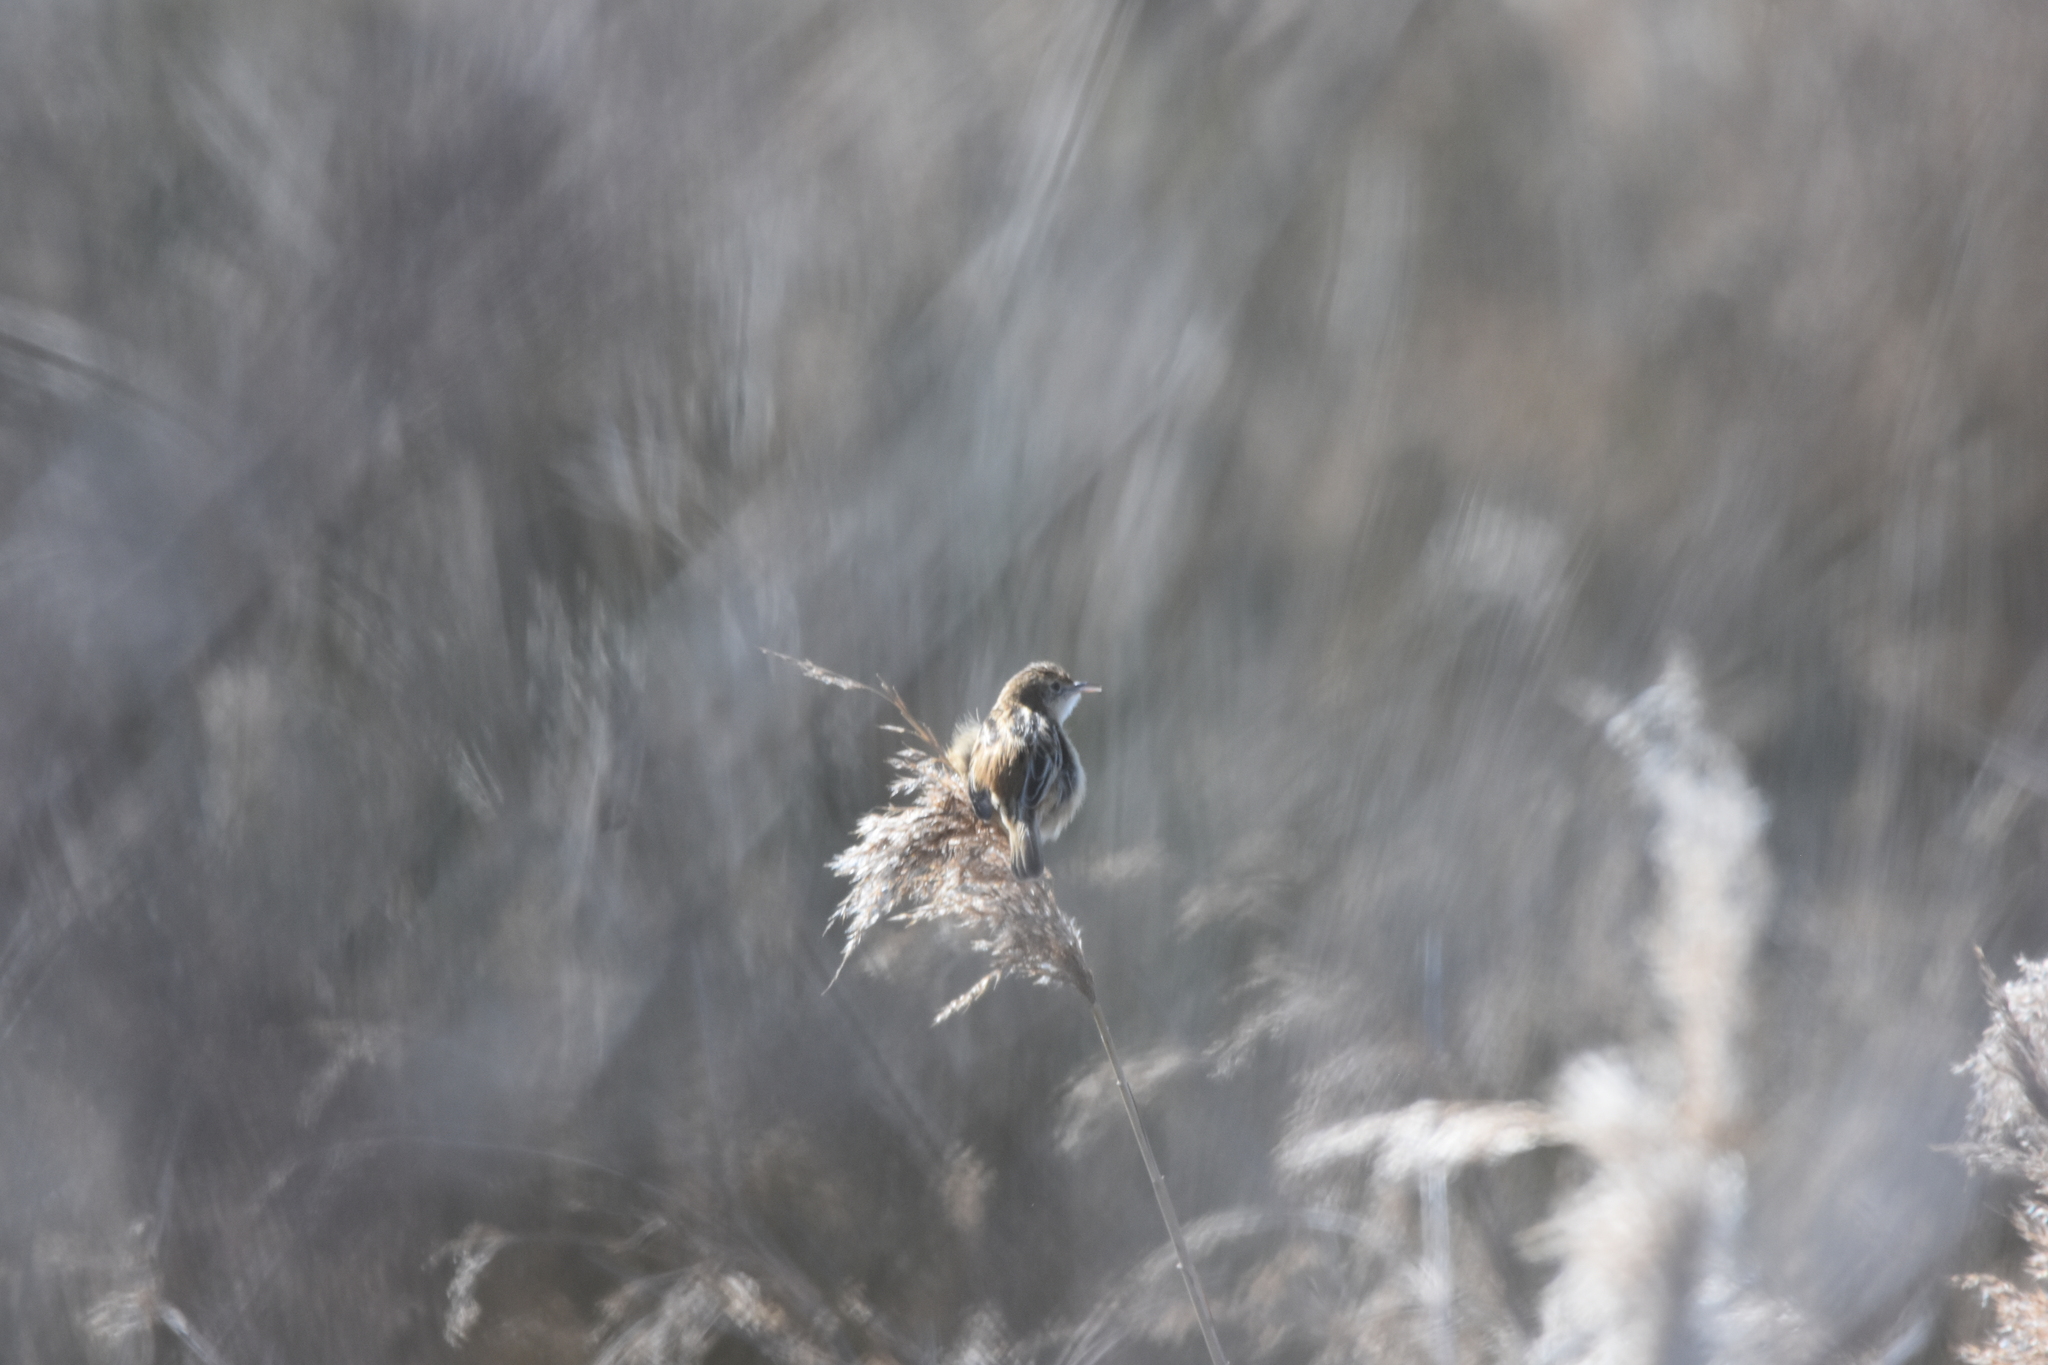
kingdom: Animalia
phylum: Chordata
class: Aves
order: Passeriformes
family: Cisticolidae
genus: Cisticola
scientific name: Cisticola juncidis
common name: Zitting cisticola
